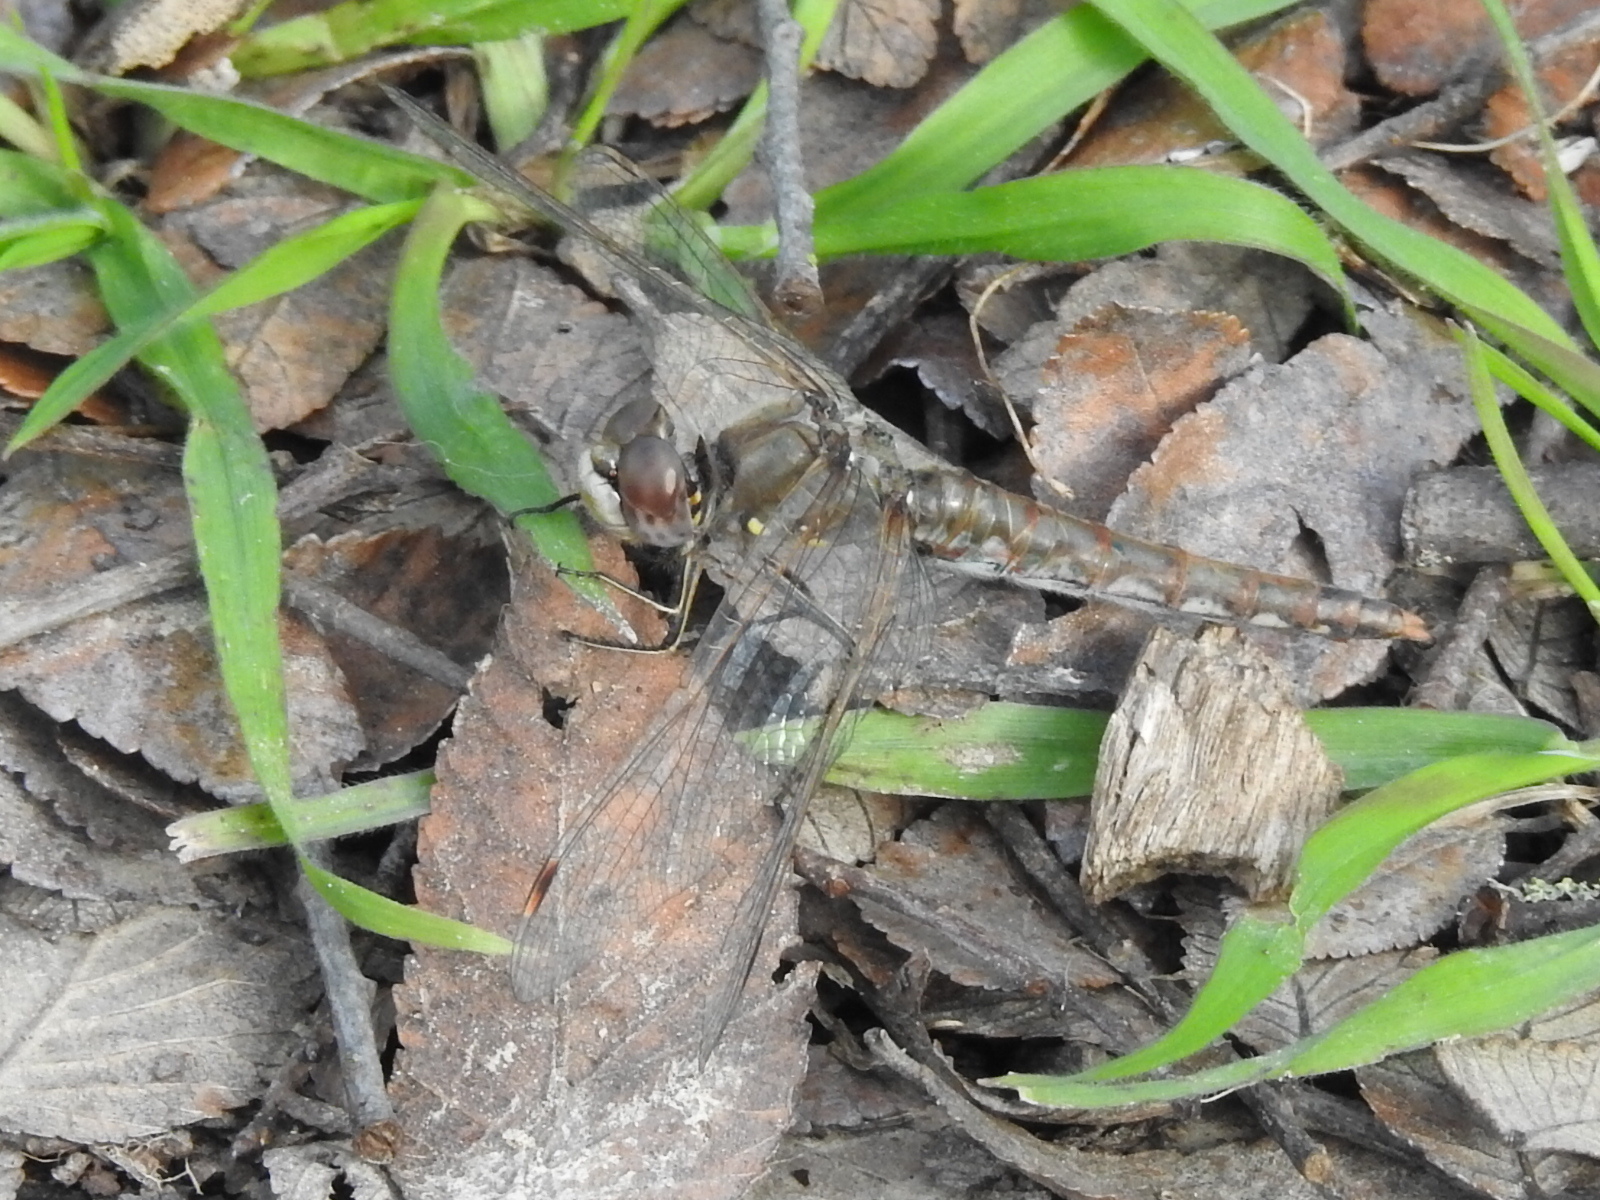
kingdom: Animalia
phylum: Arthropoda
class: Insecta
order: Odonata
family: Libellulidae
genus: Sympetrum
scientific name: Sympetrum corruptum
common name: Variegated meadowhawk
